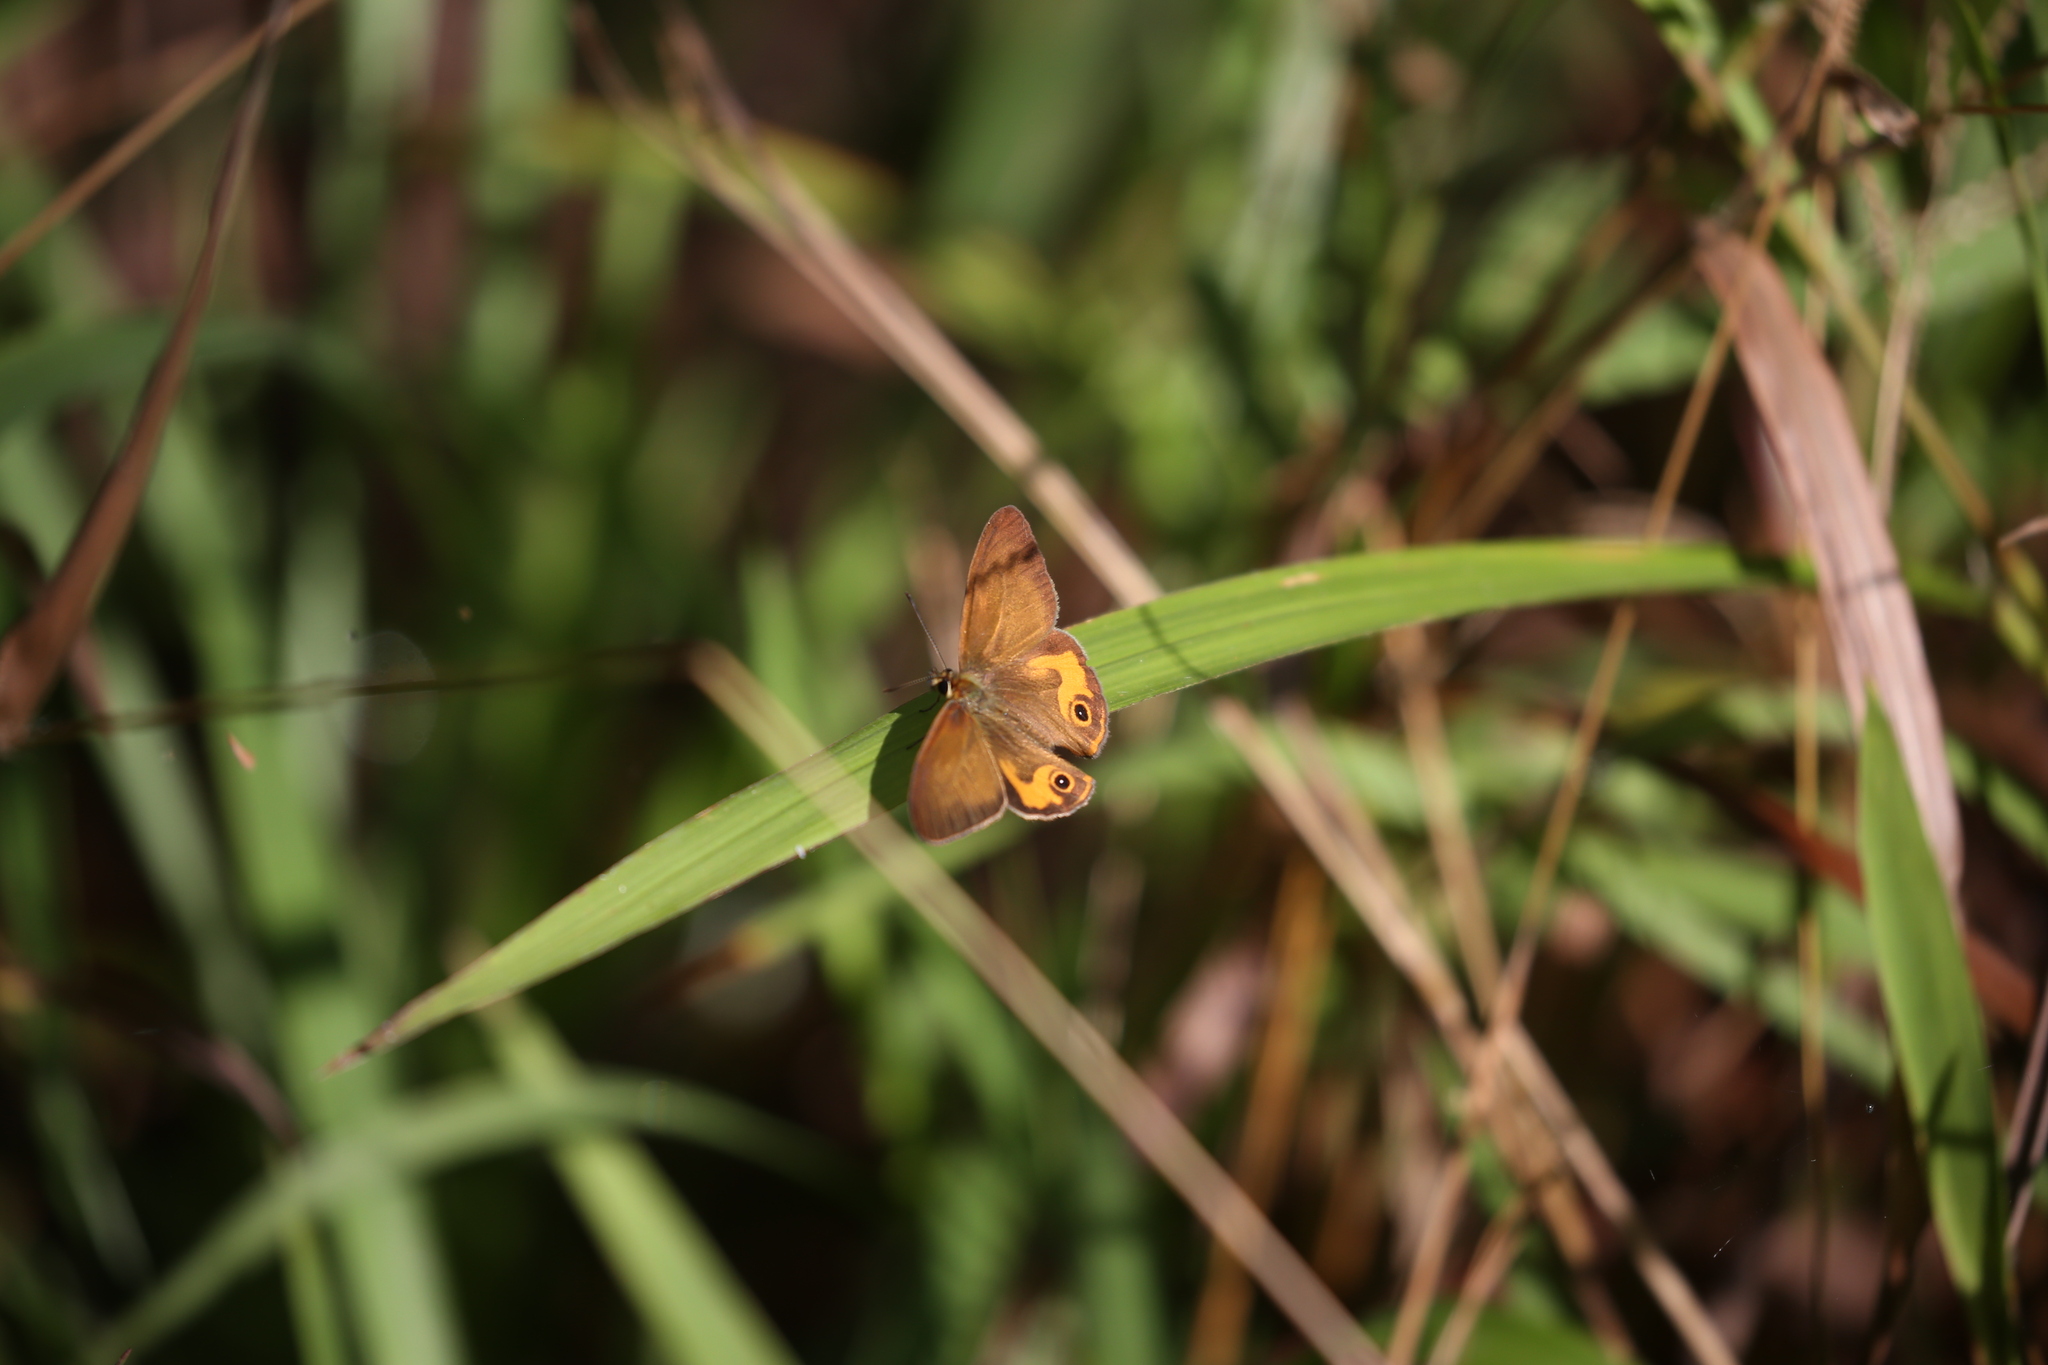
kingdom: Animalia
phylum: Arthropoda
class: Insecta
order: Lepidoptera
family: Nymphalidae
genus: Hypocysta
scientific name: Hypocysta metirius
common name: Brown ringlet
